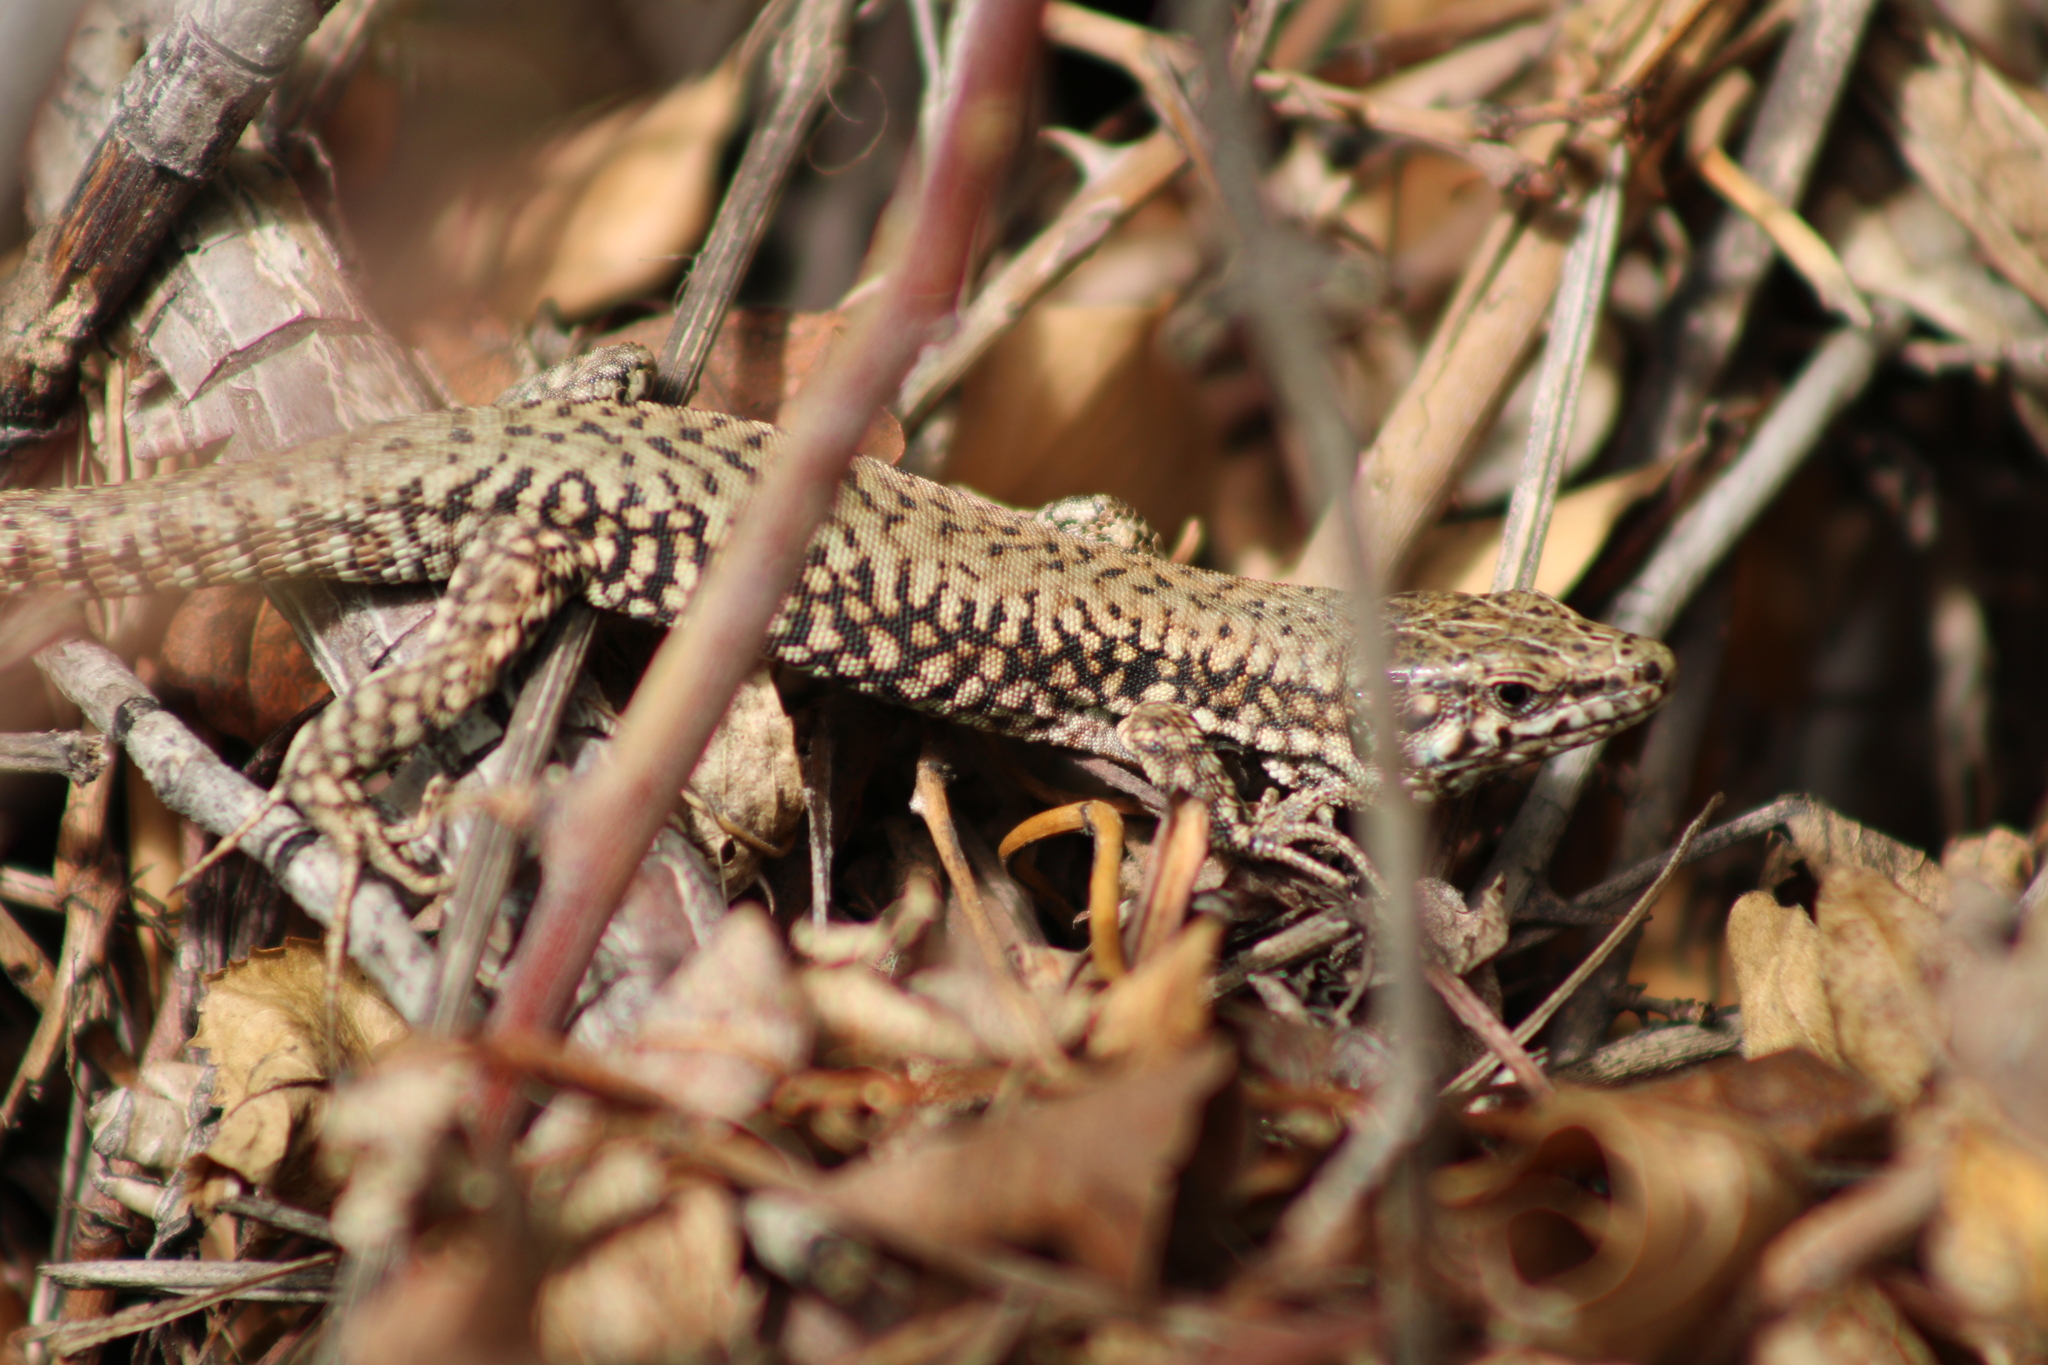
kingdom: Animalia
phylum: Chordata
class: Squamata
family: Lacertidae
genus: Podarcis
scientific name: Podarcis muralis
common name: Common wall lizard
